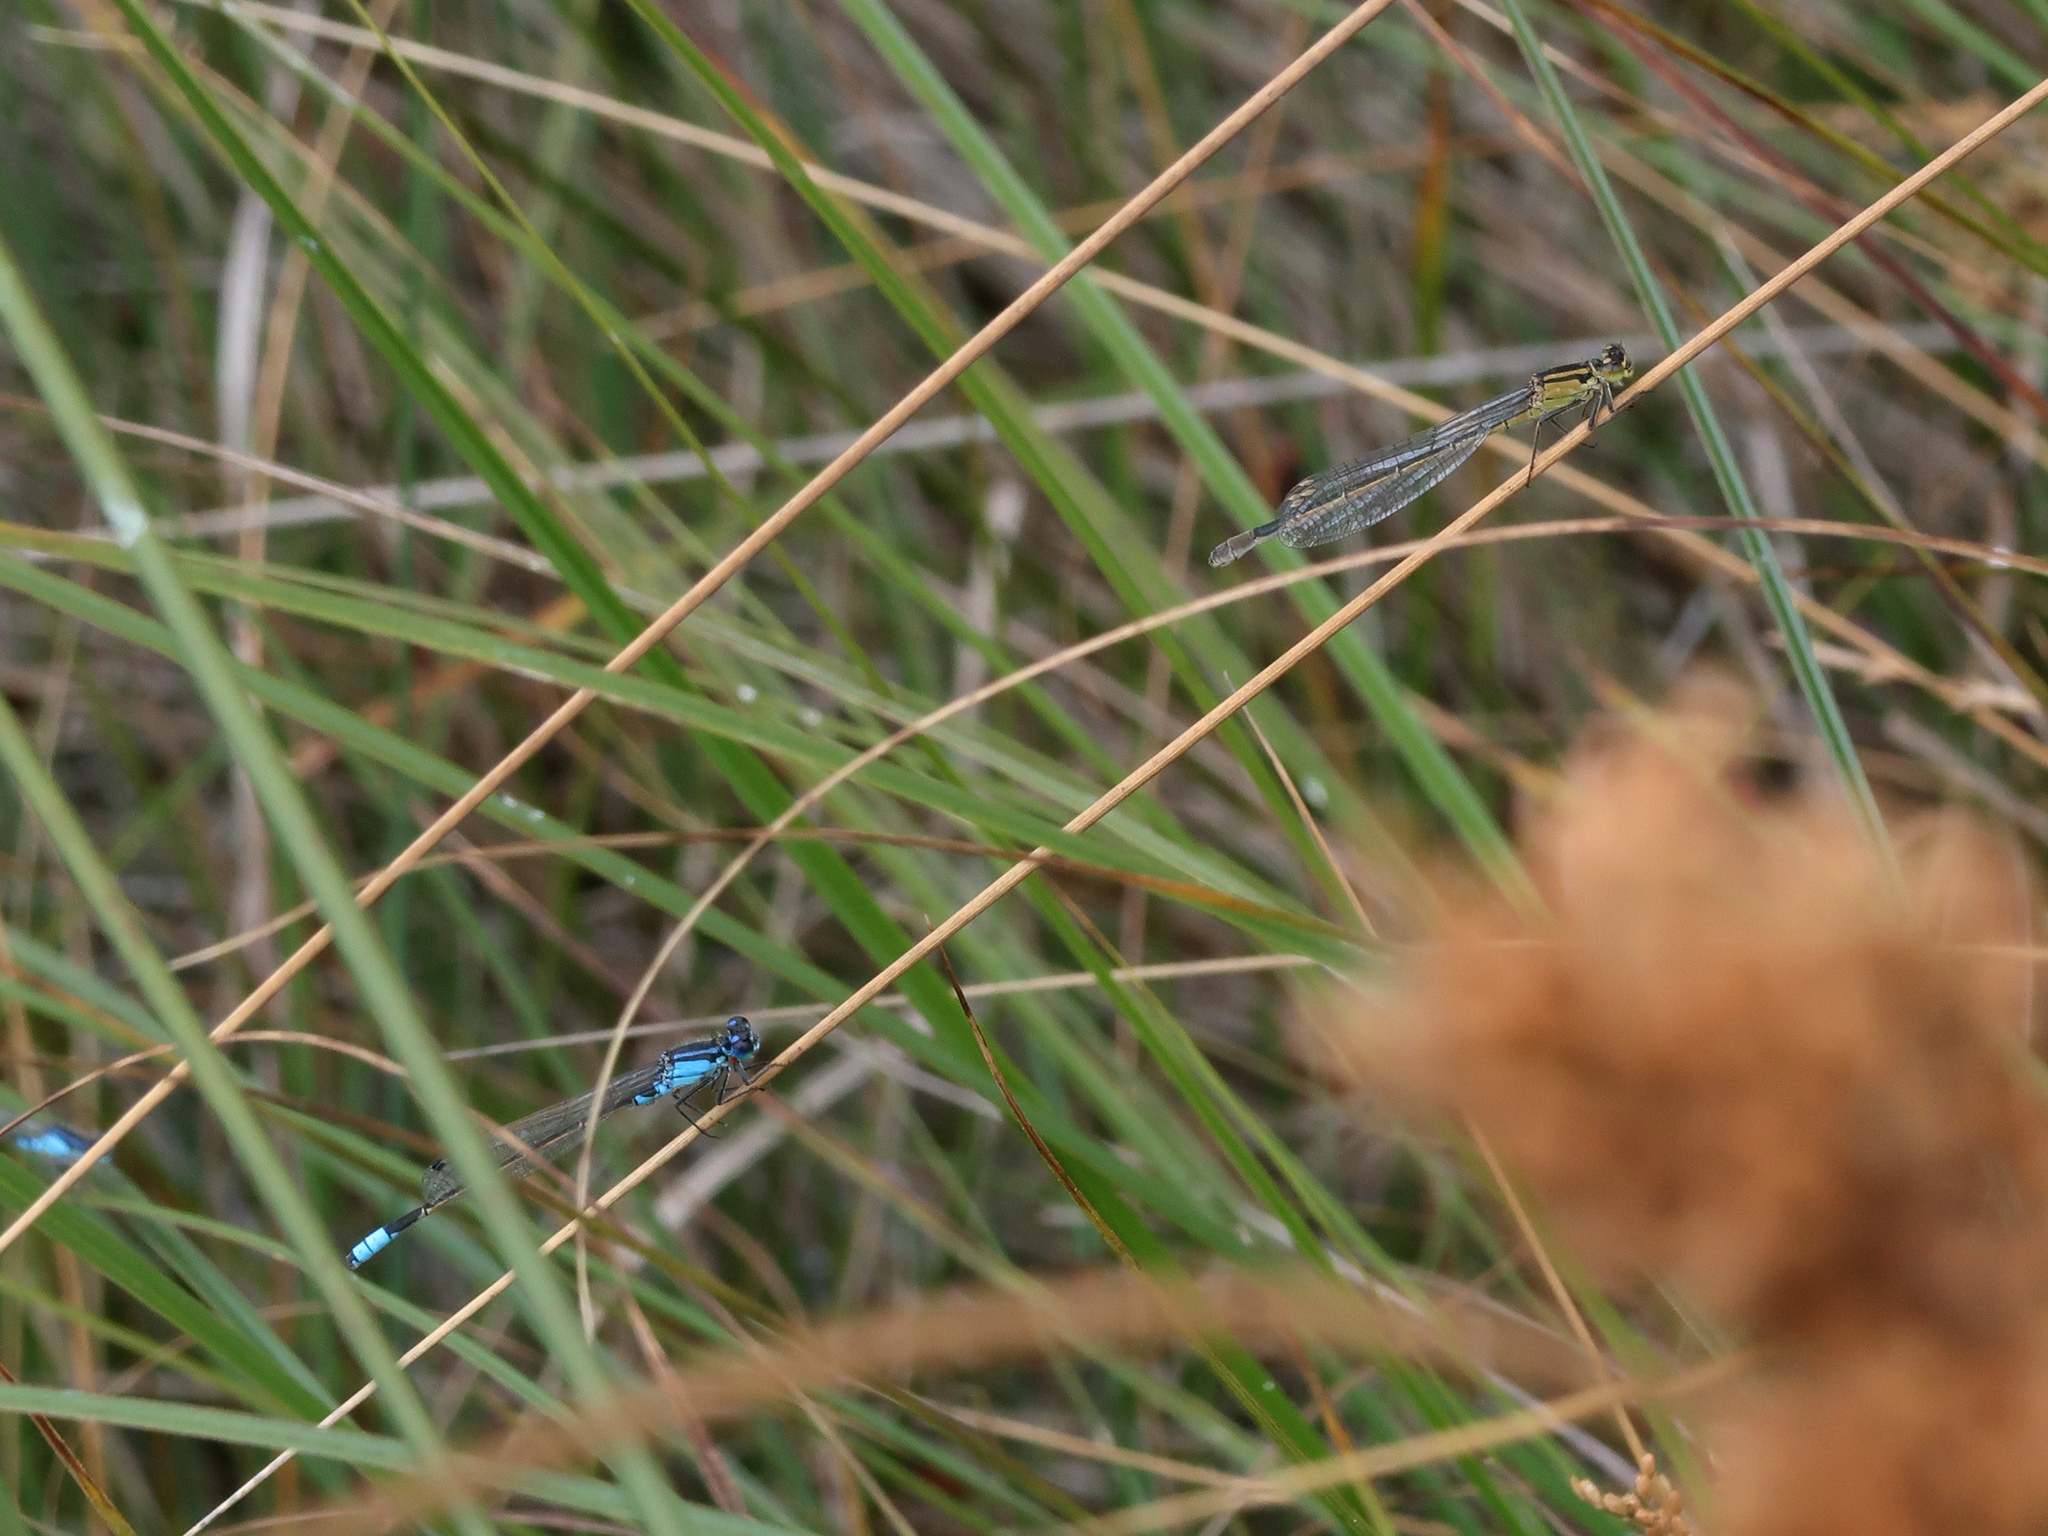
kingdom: Animalia
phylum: Arthropoda
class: Insecta
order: Odonata
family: Coenagrionidae
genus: Ischnura
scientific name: Ischnura heterosticta
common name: Common bluetail
